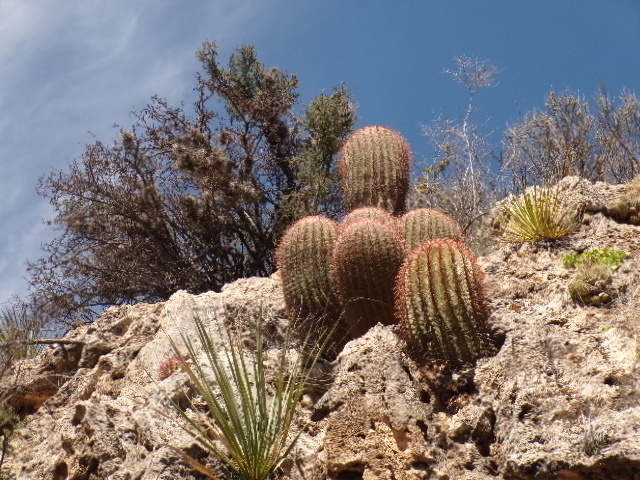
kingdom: Plantae
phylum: Tracheophyta
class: Magnoliopsida
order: Caryophyllales
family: Cactaceae
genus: Ferocactus
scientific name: Ferocactus pilosus
